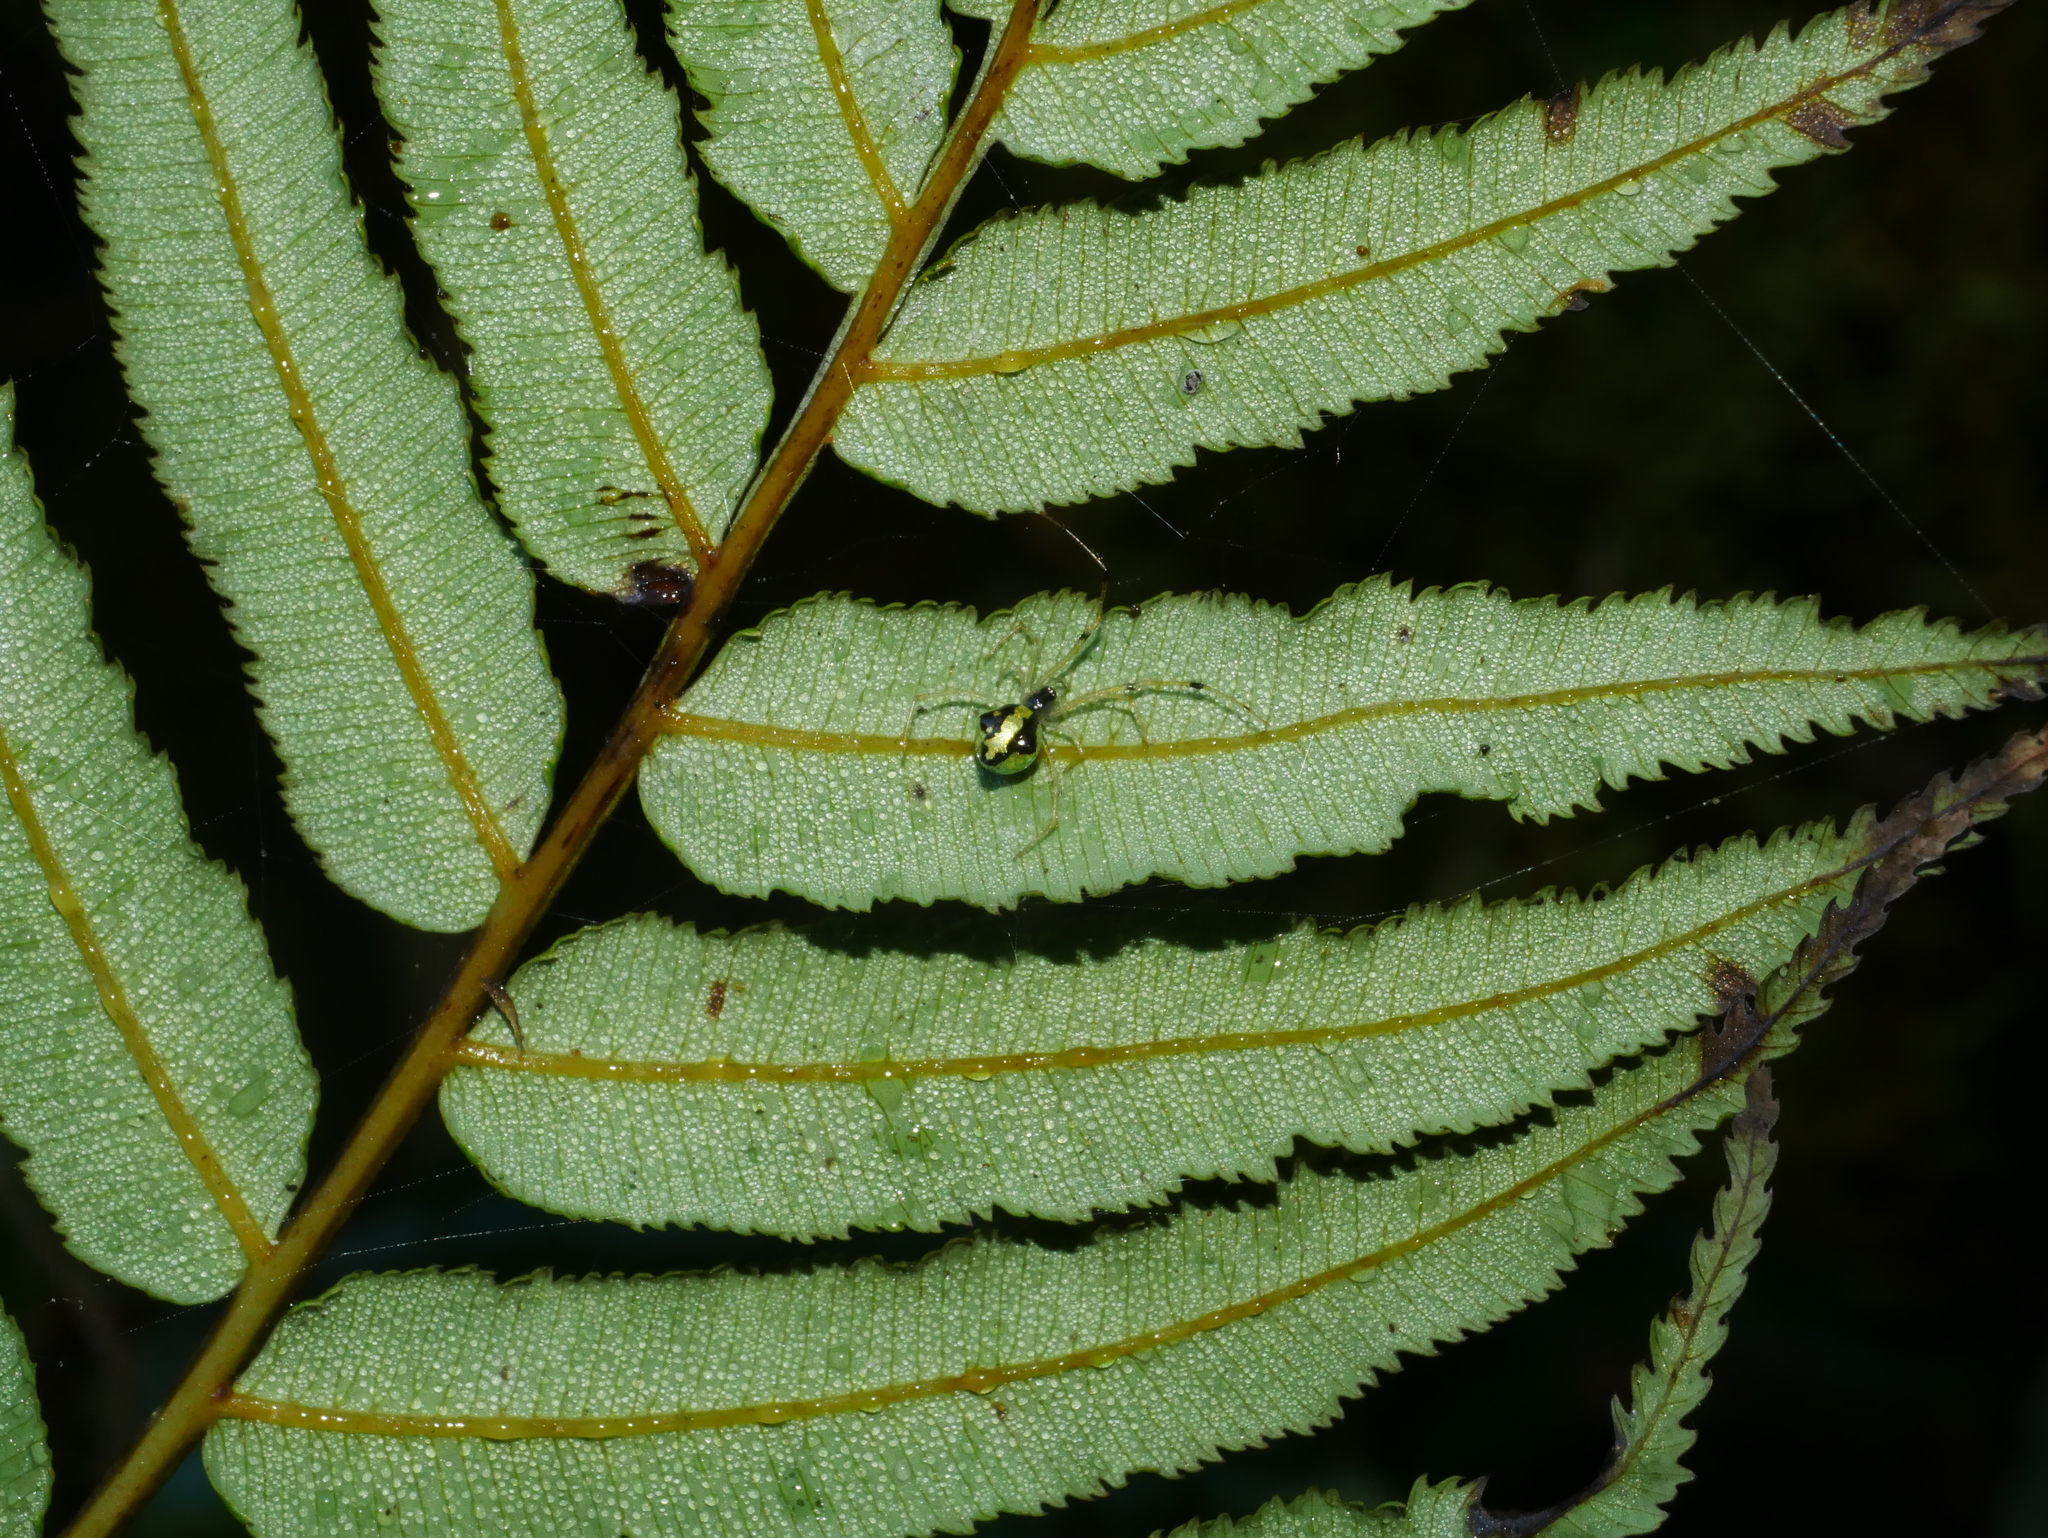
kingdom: Animalia
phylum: Arthropoda
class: Arachnida
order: Araneae
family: Theridiidae
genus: Chrysso
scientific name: Chrysso scintillans
